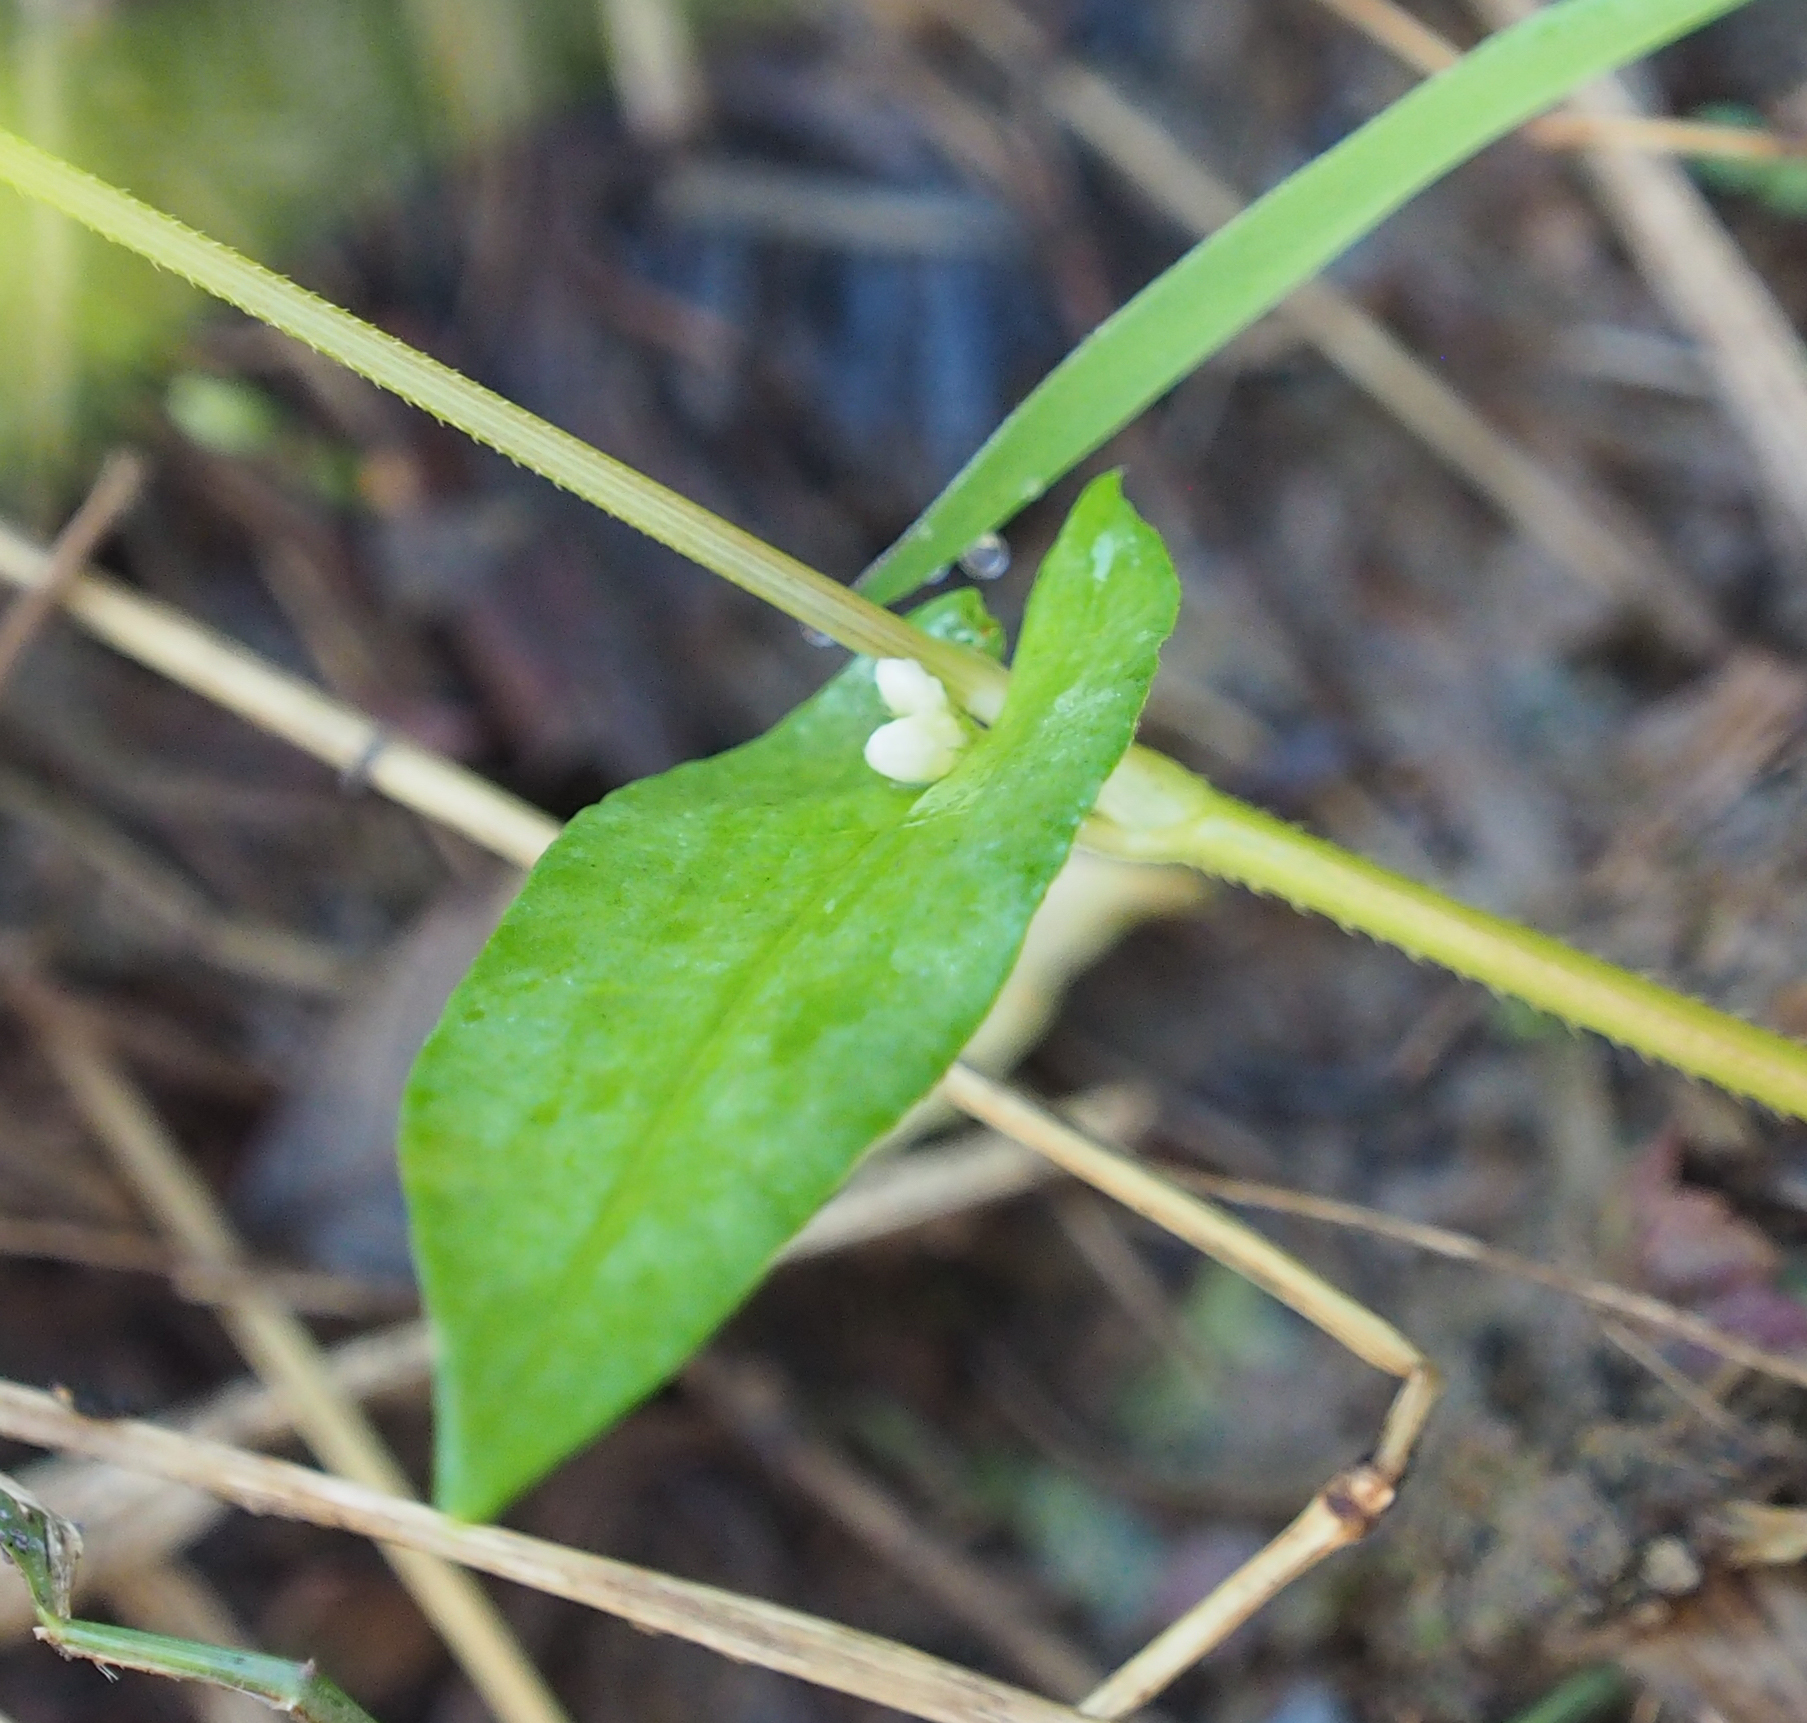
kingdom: Plantae
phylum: Tracheophyta
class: Magnoliopsida
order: Caryophyllales
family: Polygonaceae
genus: Persicaria
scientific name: Persicaria sagittata
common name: American tearthumb
